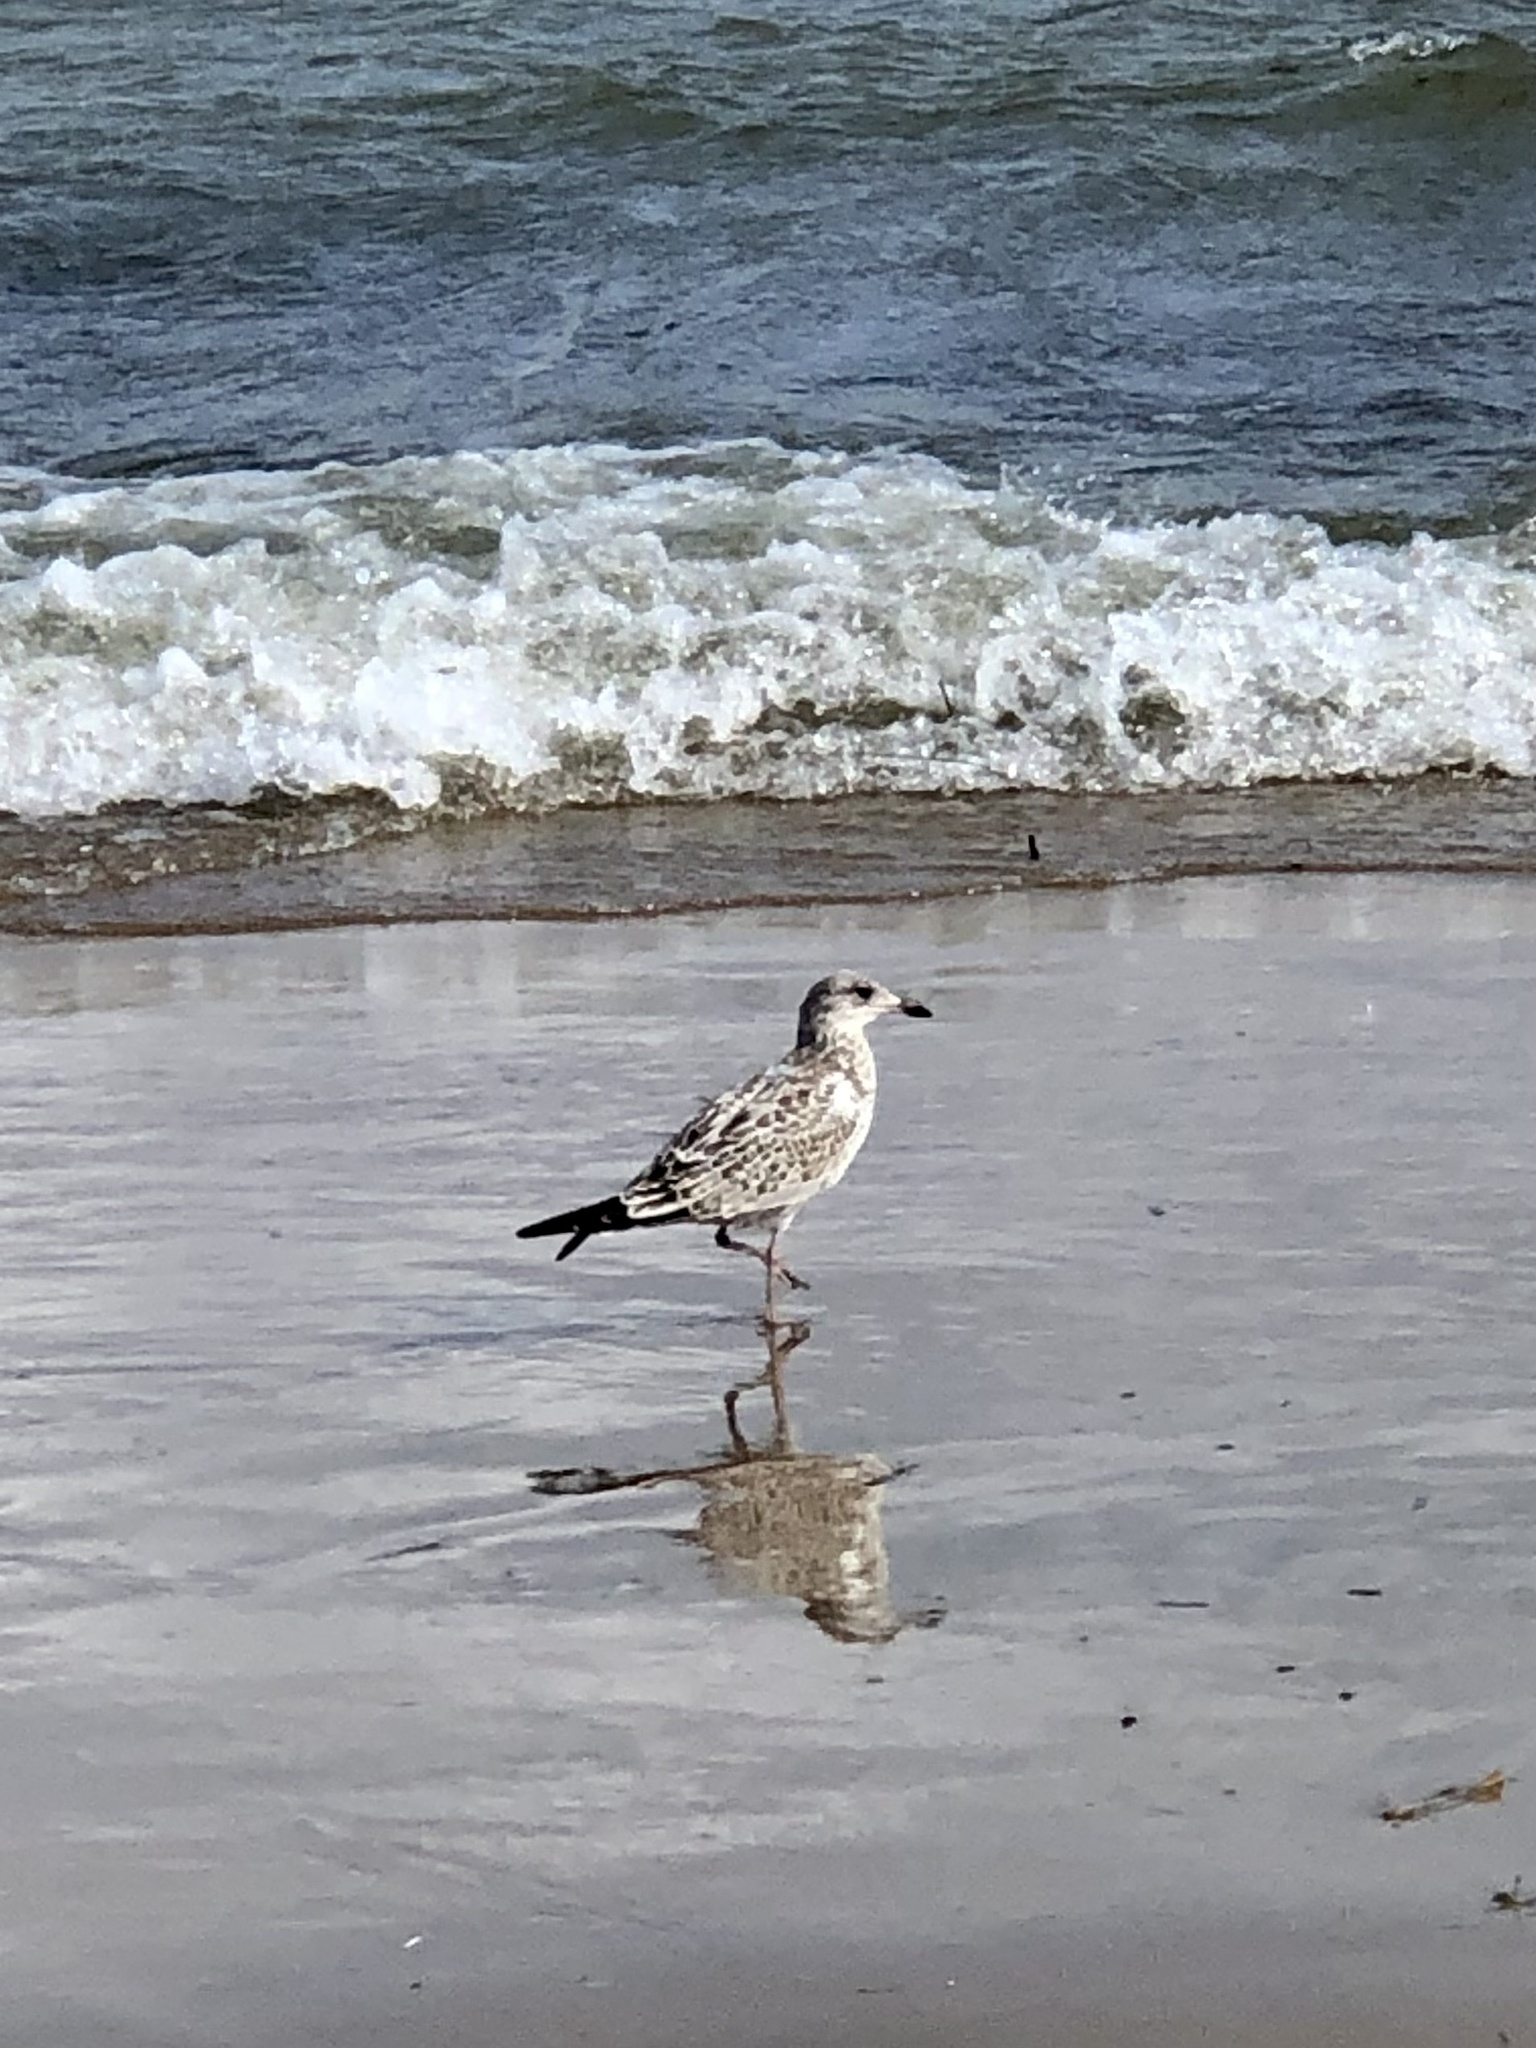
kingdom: Animalia
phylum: Chordata
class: Aves
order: Charadriiformes
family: Laridae
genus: Larus
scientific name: Larus delawarensis
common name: Ring-billed gull
